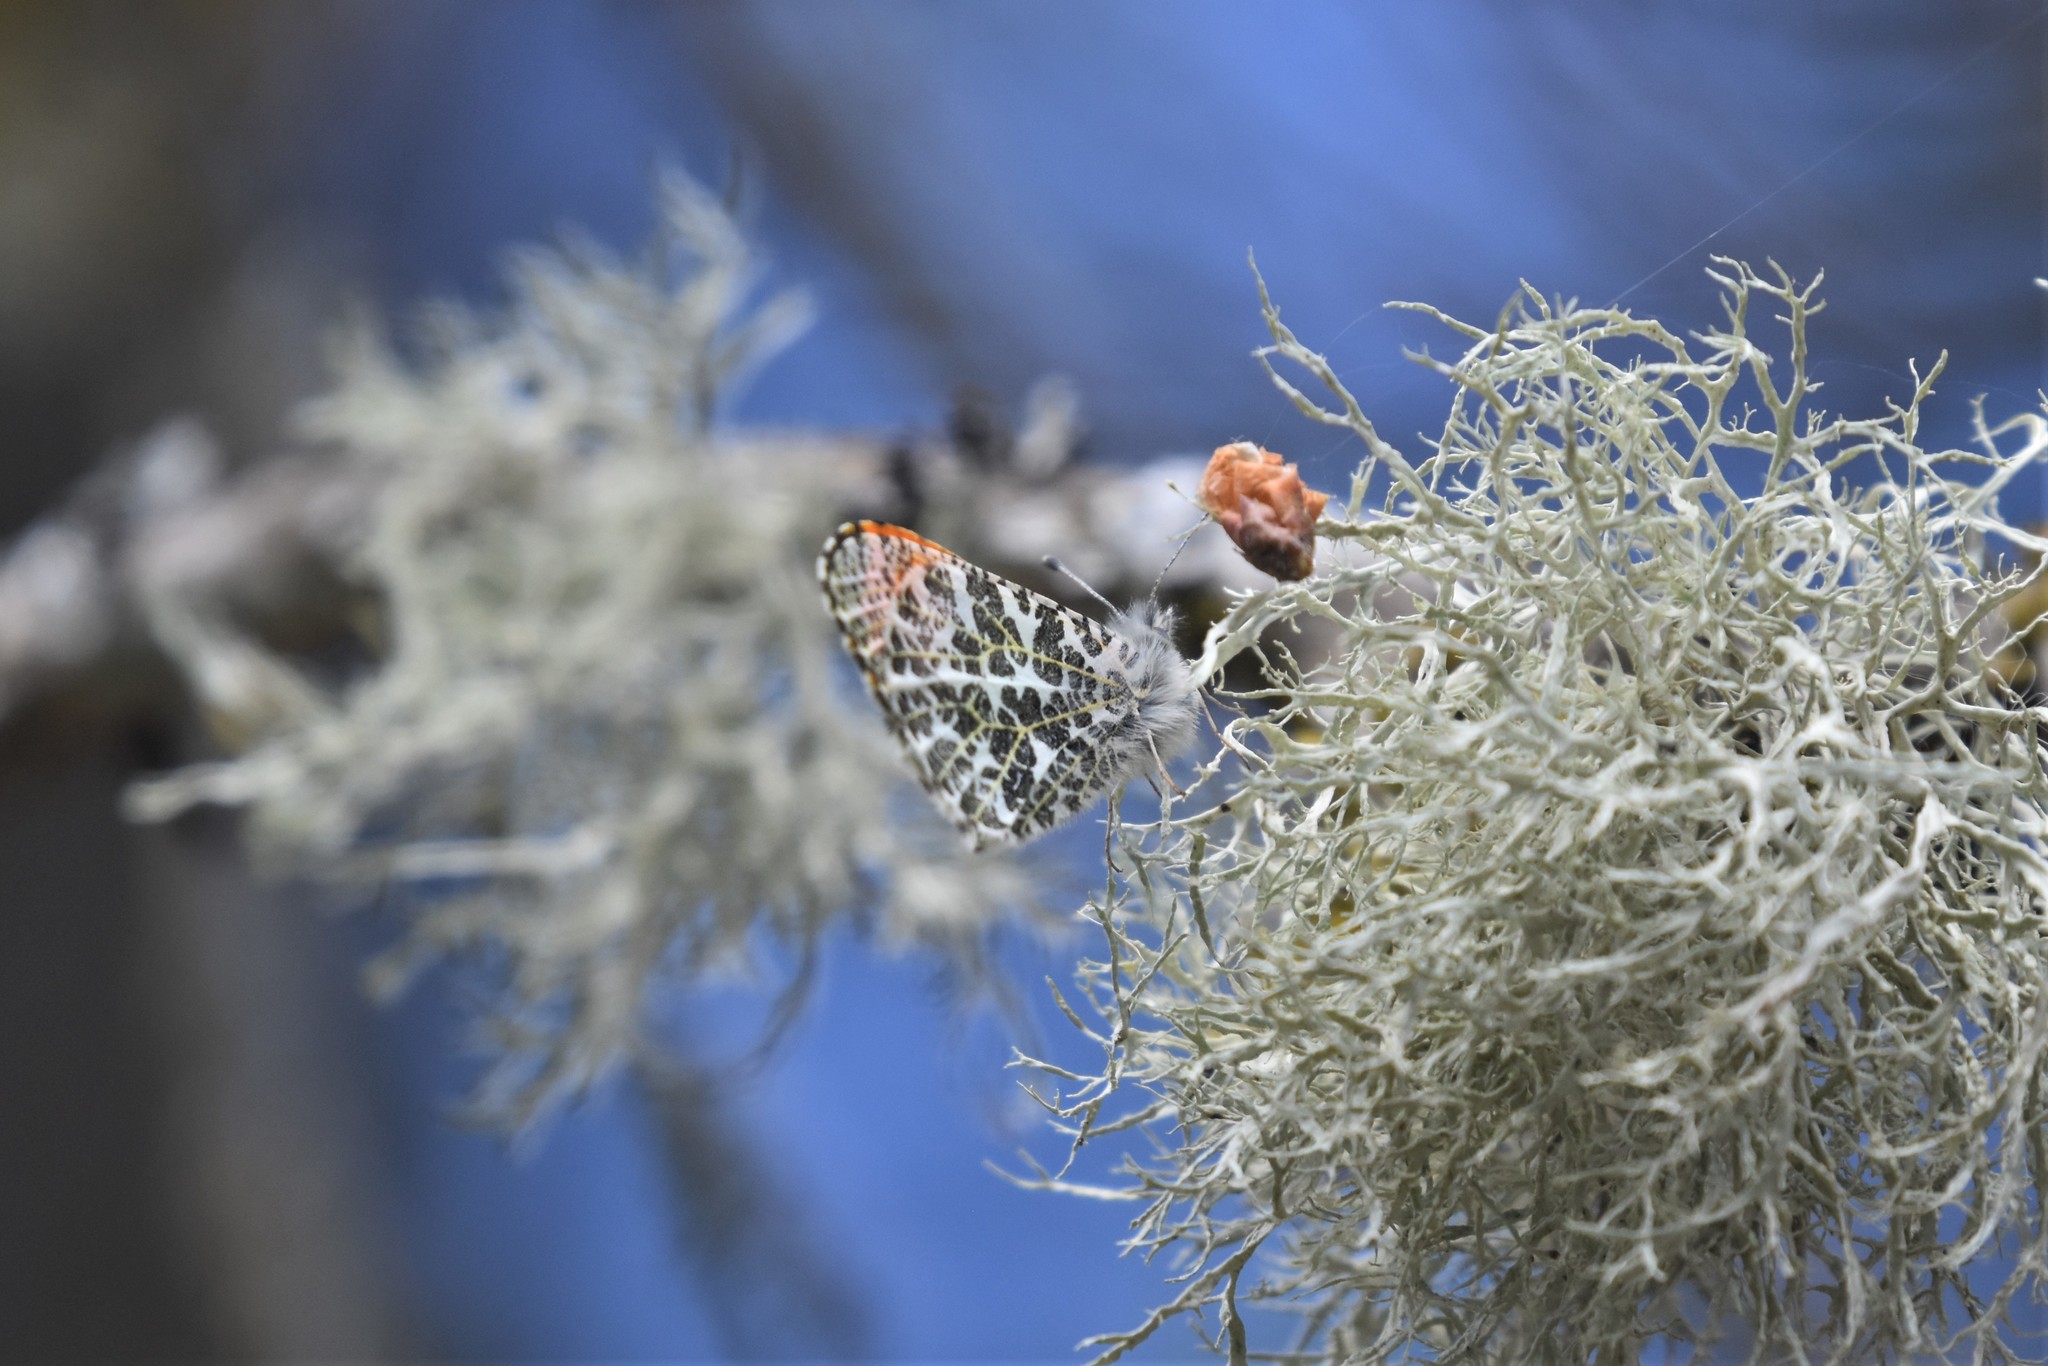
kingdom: Animalia
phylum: Arthropoda
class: Insecta
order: Lepidoptera
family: Pieridae
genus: Anthocharis
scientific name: Anthocharis julia
